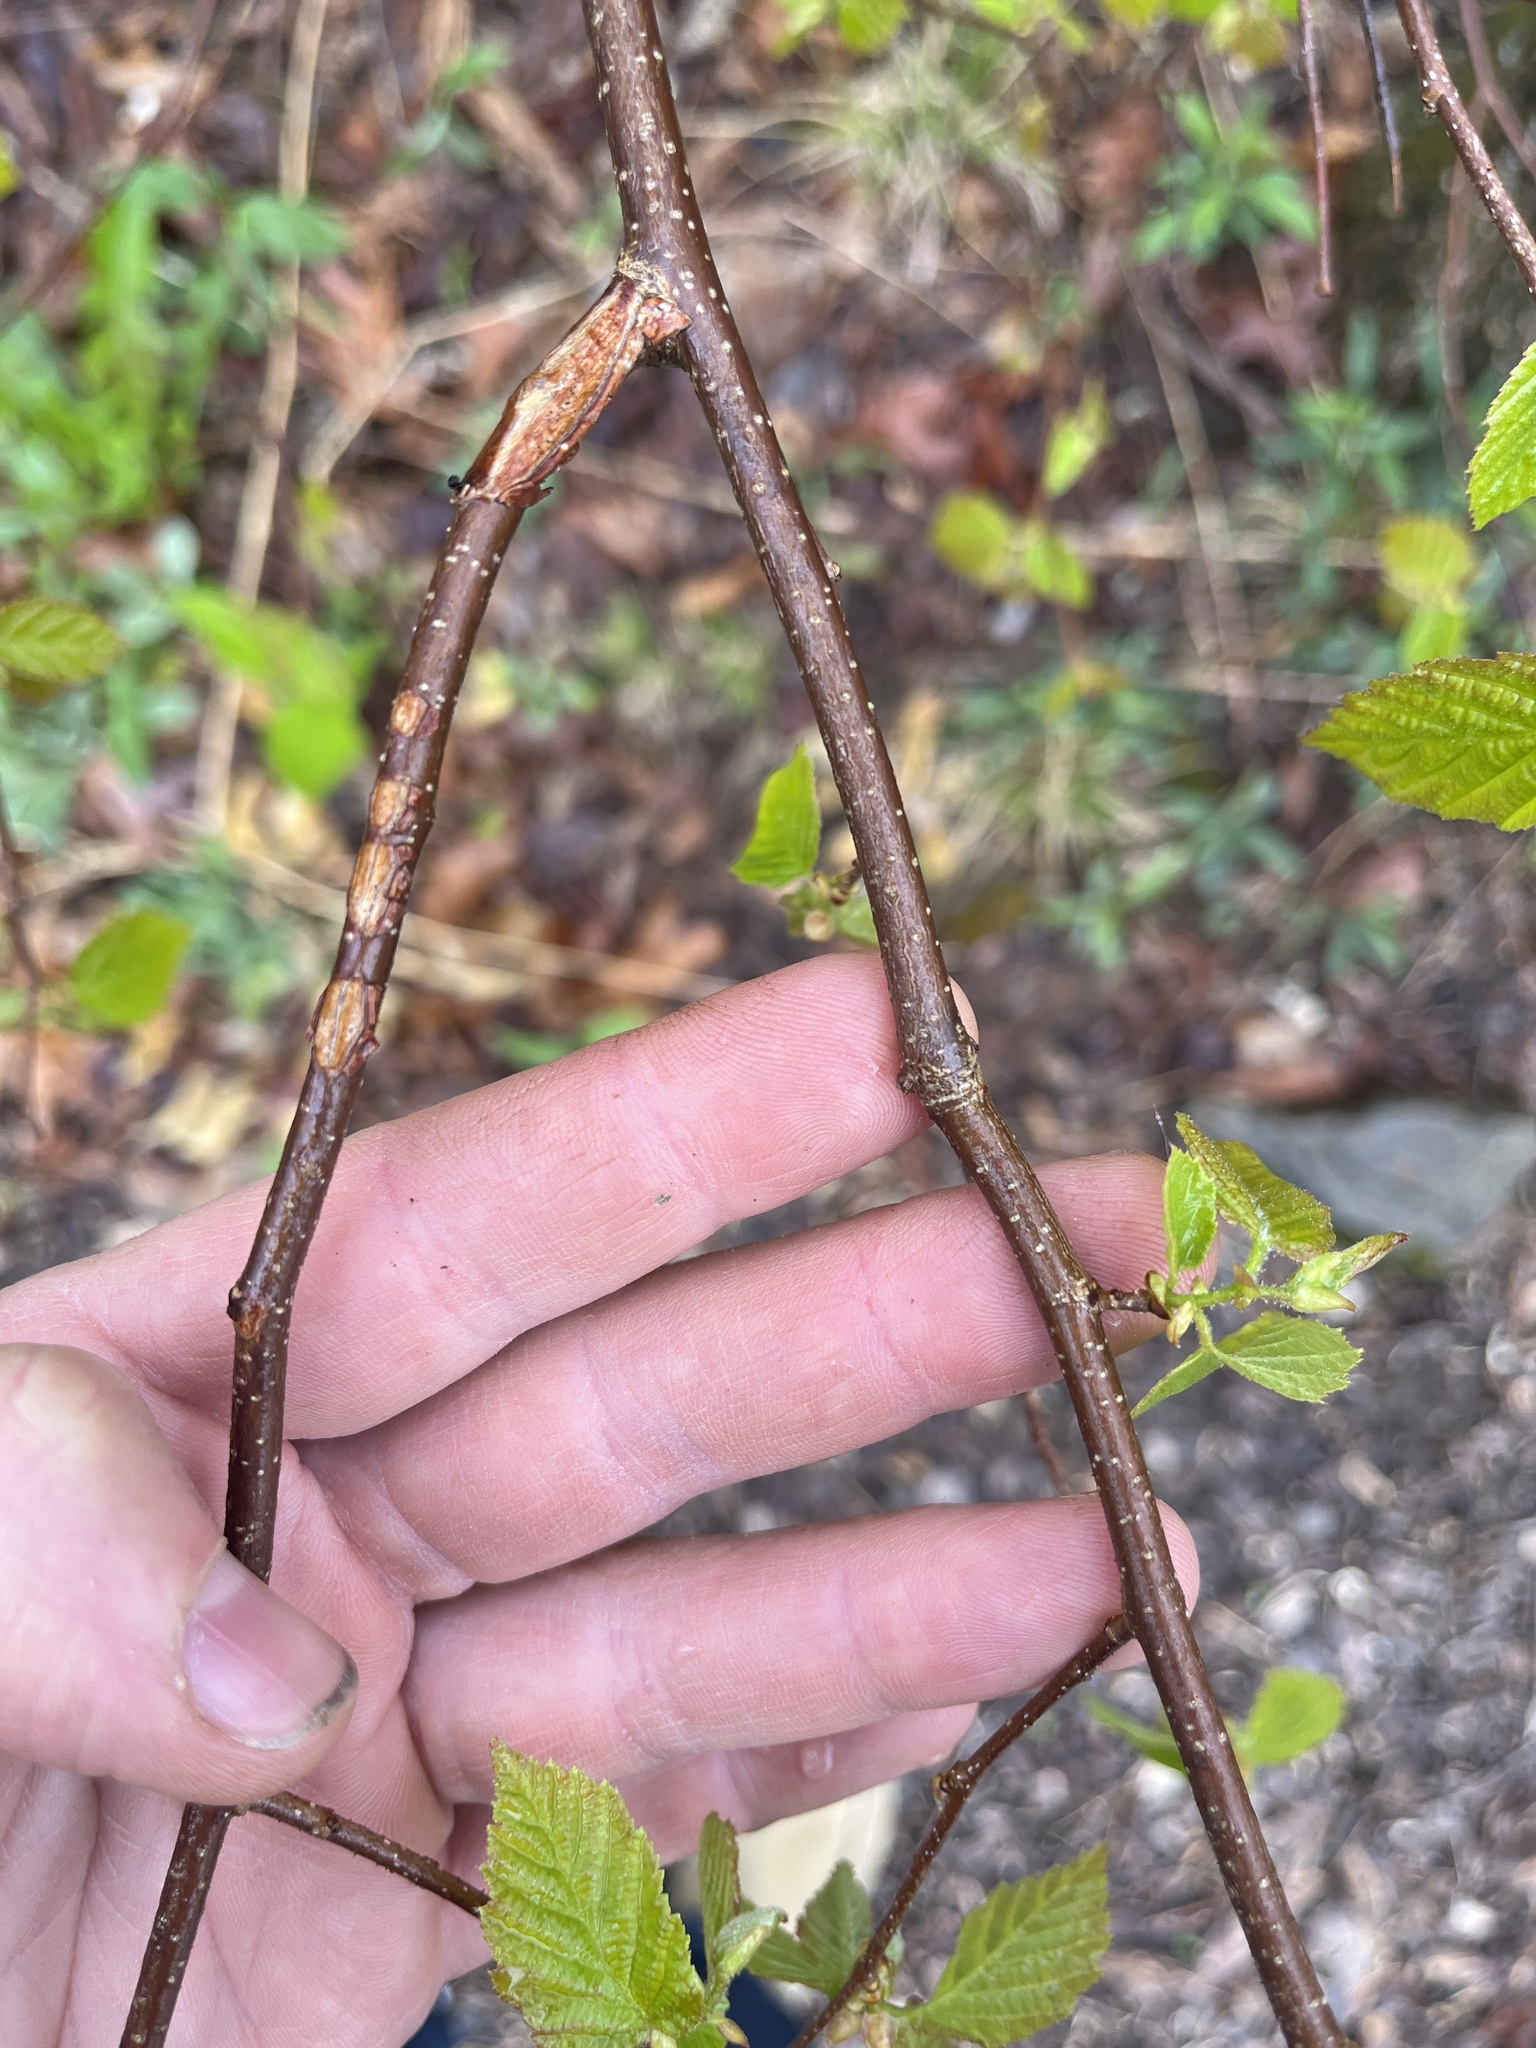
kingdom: Plantae
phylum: Tracheophyta
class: Magnoliopsida
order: Fagales
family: Betulaceae
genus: Corylus
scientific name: Corylus americana
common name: American hazel
